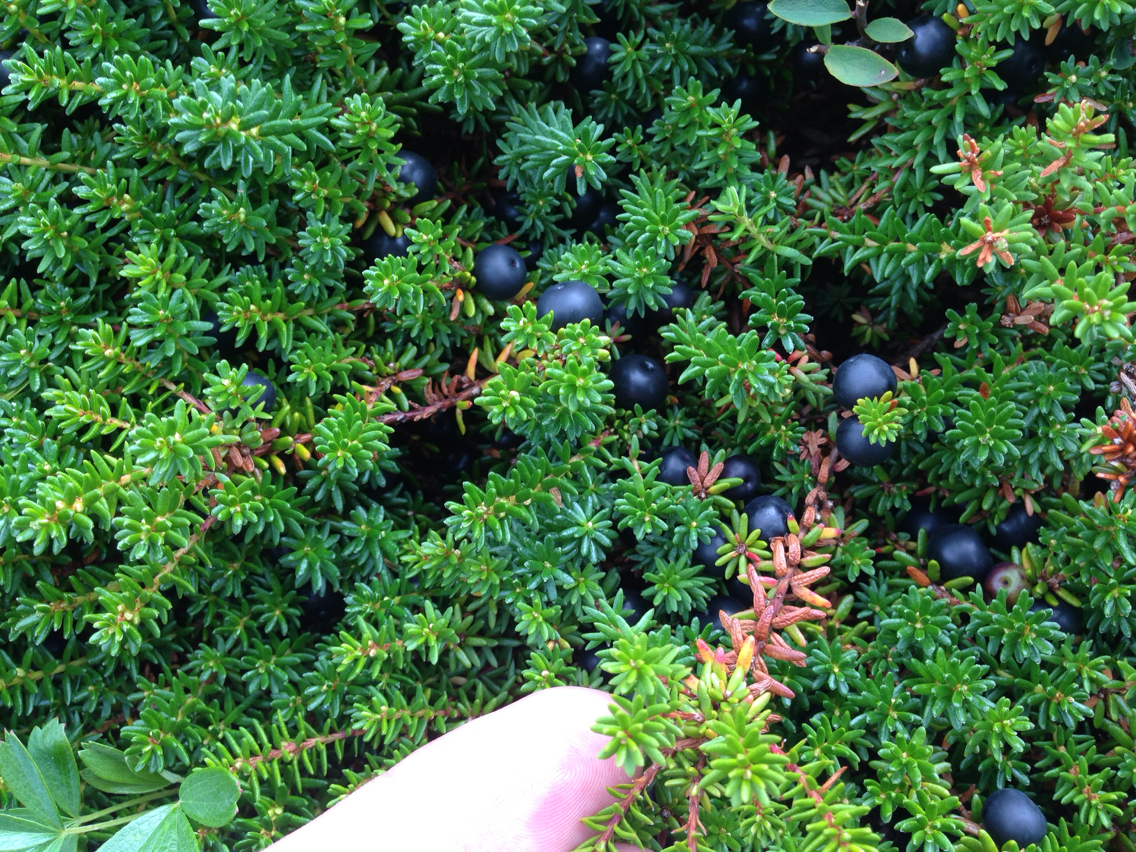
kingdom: Plantae
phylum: Tracheophyta
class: Magnoliopsida
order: Ericales
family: Ericaceae
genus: Empetrum
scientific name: Empetrum nigrum
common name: Black crowberry
